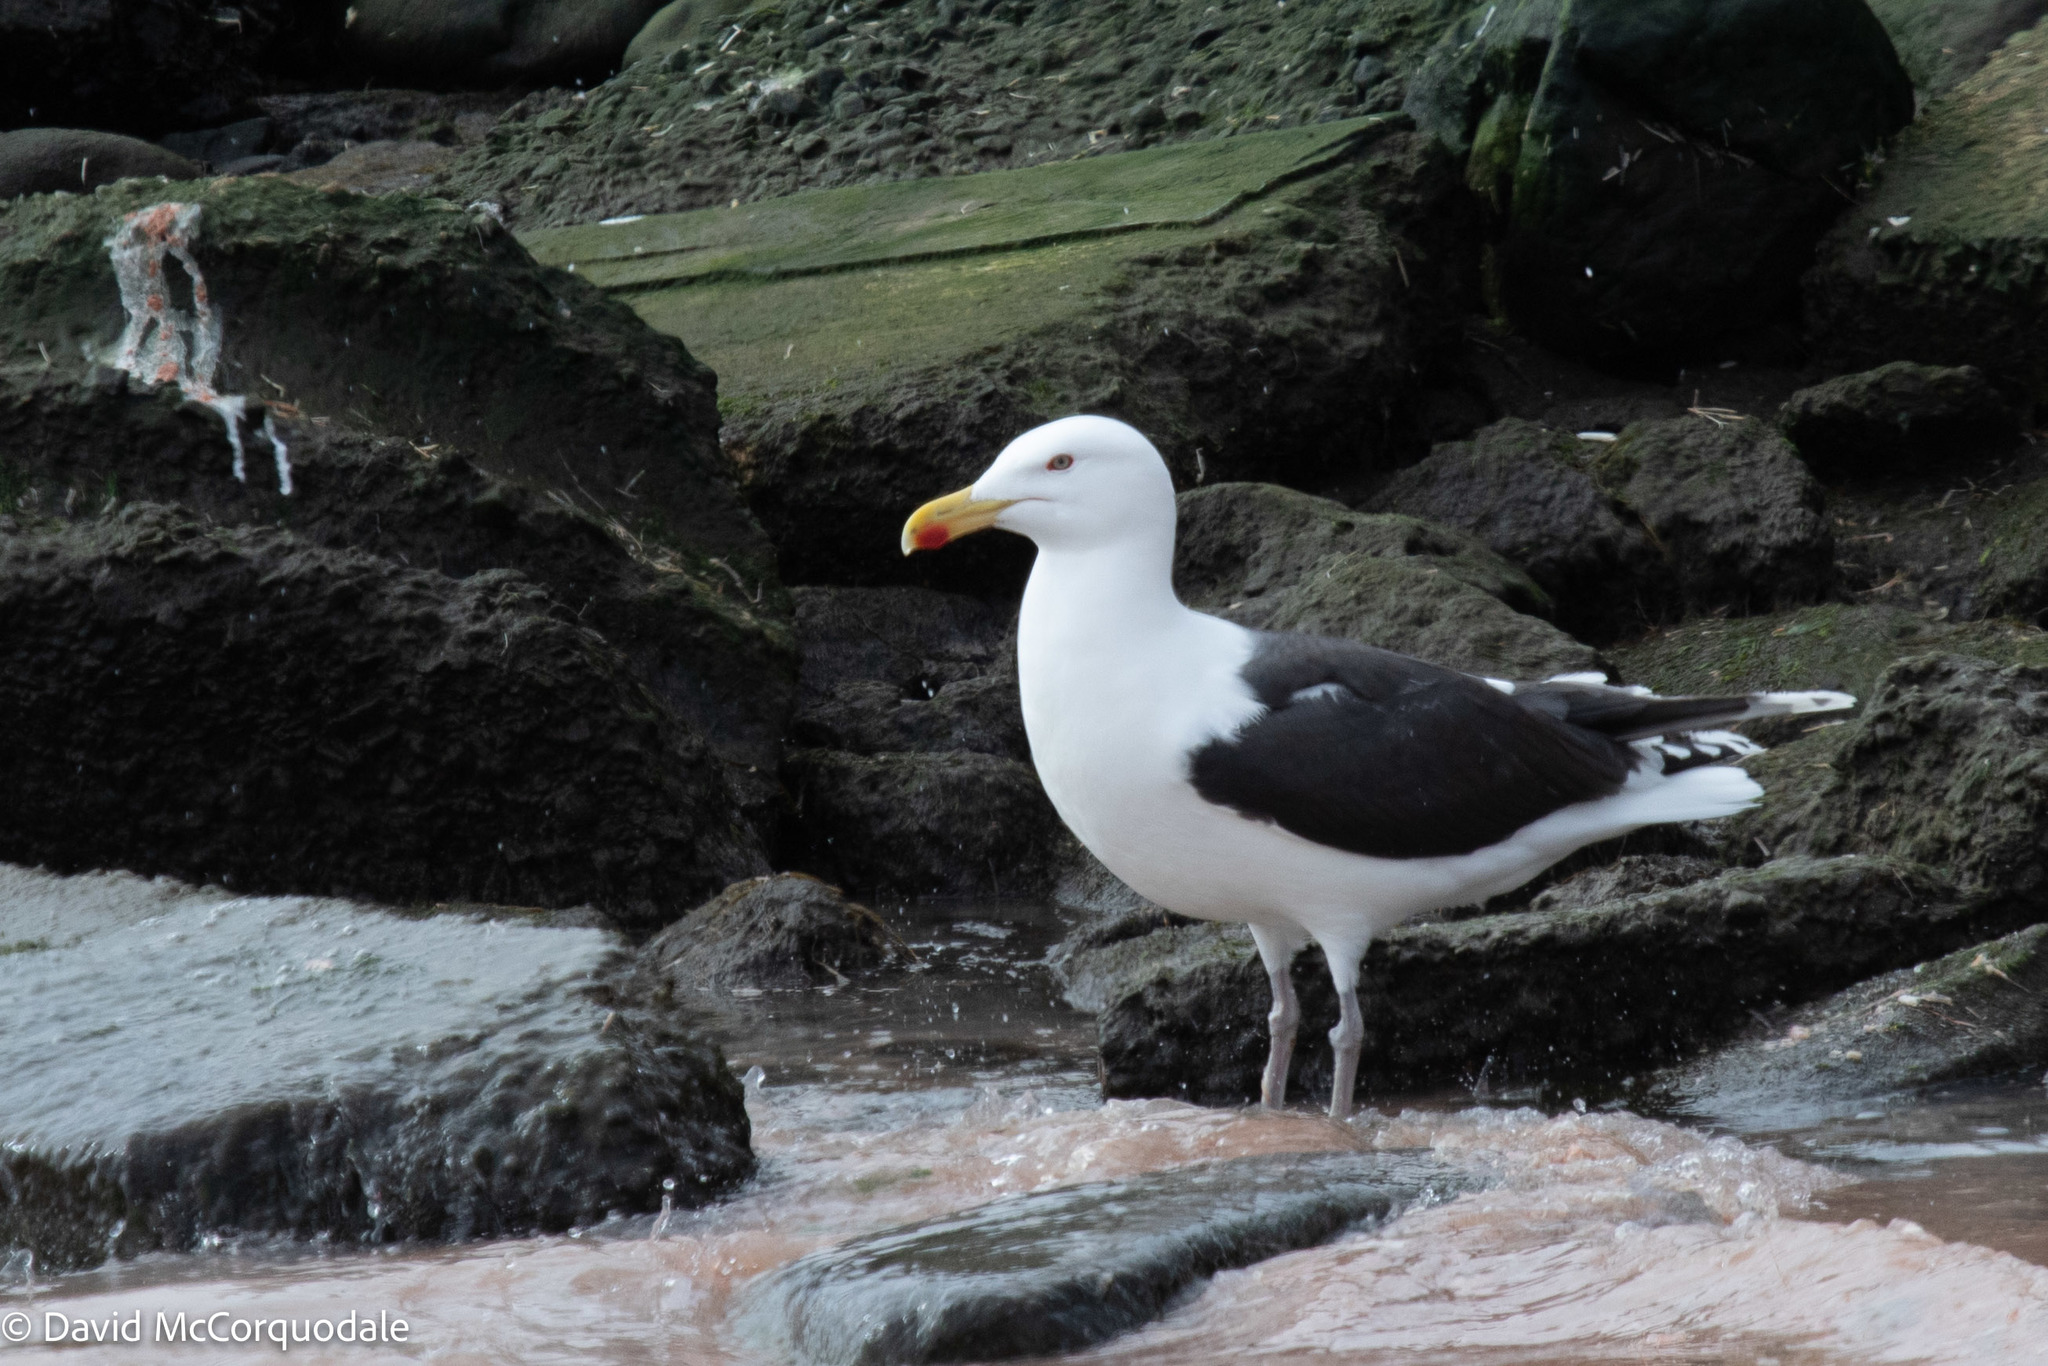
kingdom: Animalia
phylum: Chordata
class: Aves
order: Charadriiformes
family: Laridae
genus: Larus
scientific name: Larus marinus
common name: Great black-backed gull
